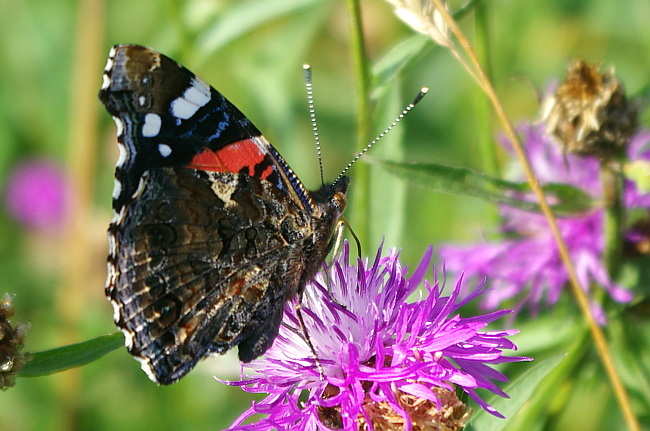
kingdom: Animalia
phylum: Arthropoda
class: Insecta
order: Lepidoptera
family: Nymphalidae
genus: Vanessa
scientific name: Vanessa atalanta
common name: Red admiral
